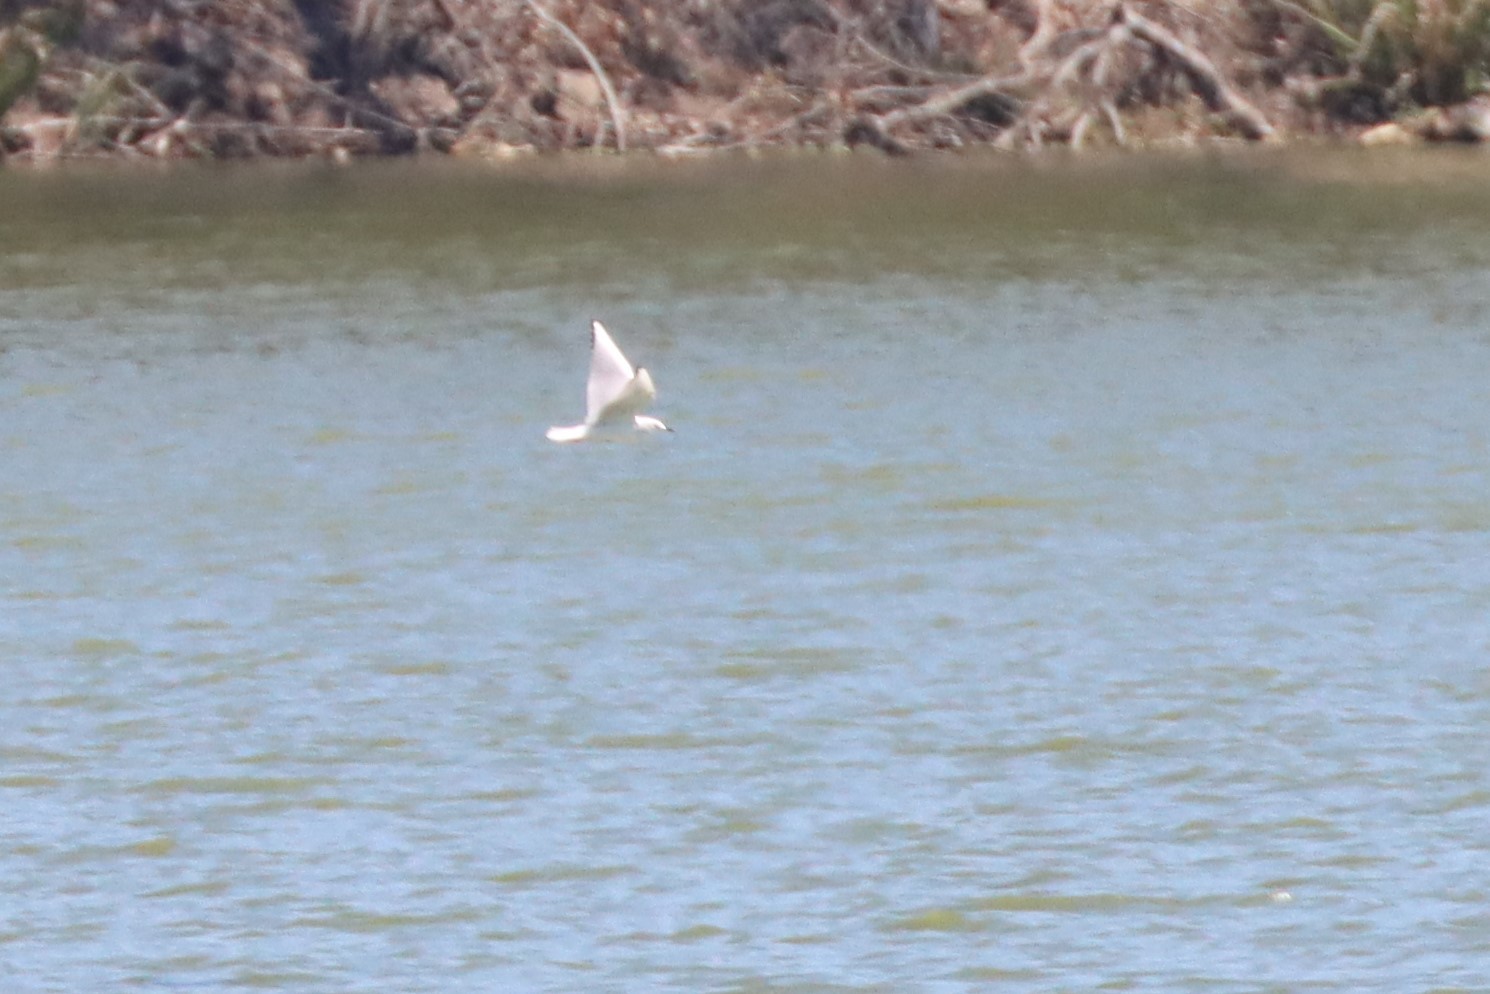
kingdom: Animalia
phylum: Chordata
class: Aves
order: Charadriiformes
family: Laridae
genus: Chroicocephalus
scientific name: Chroicocephalus philadelphia
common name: Bonaparte's gull
